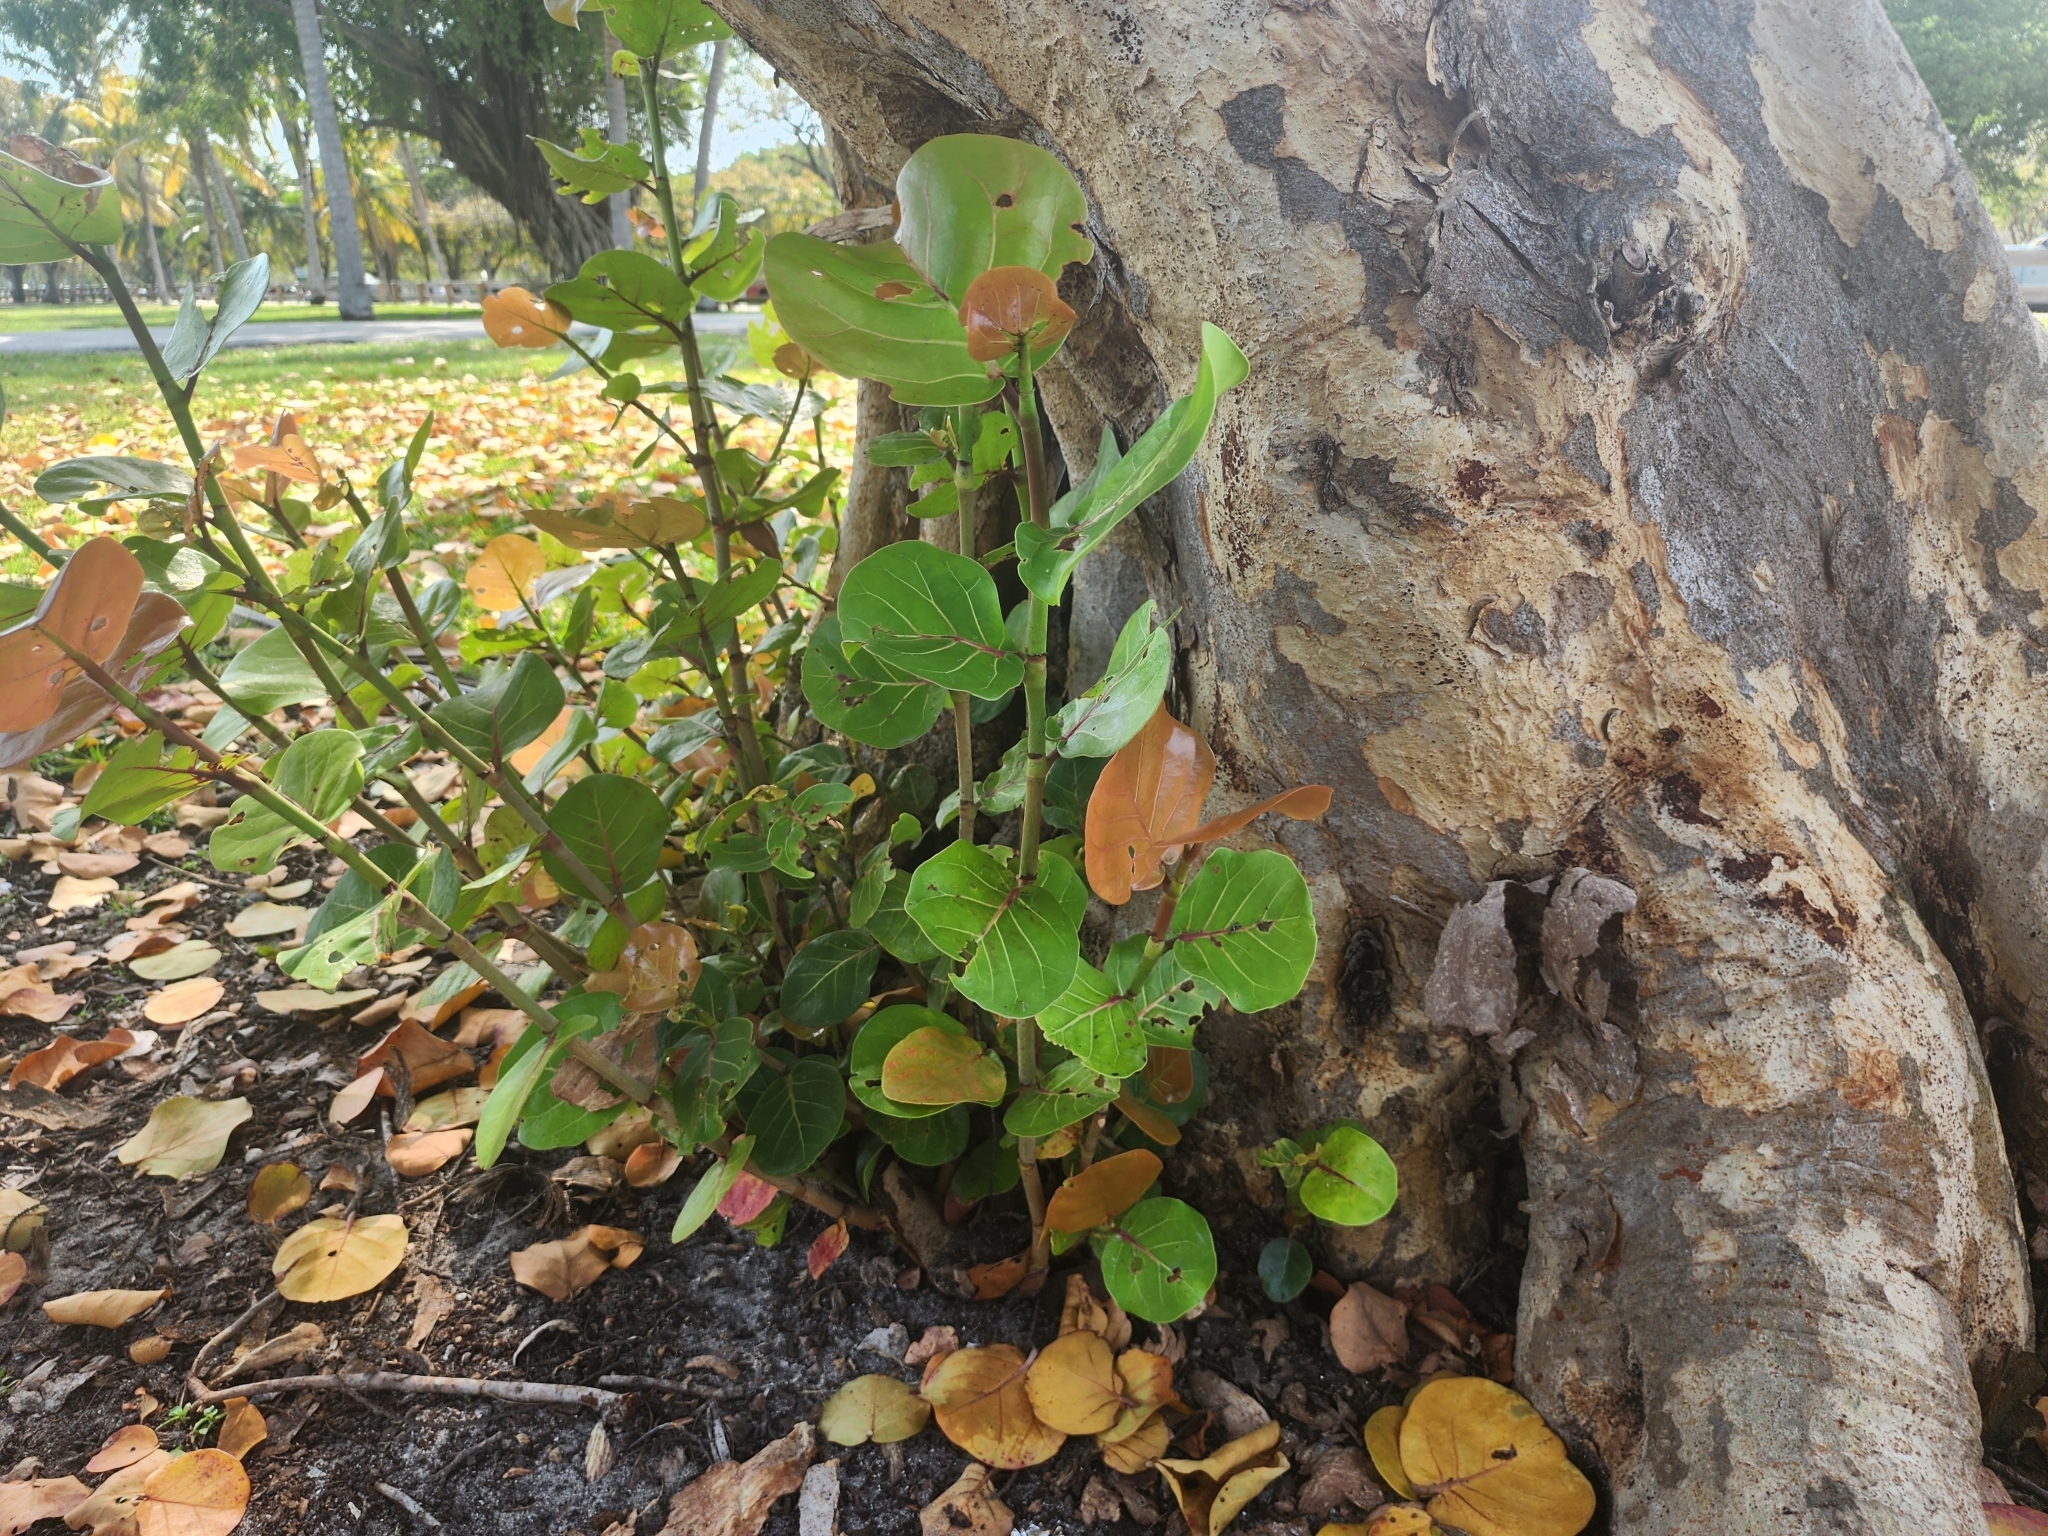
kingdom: Plantae
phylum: Tracheophyta
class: Magnoliopsida
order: Caryophyllales
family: Polygonaceae
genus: Coccoloba
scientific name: Coccoloba uvifera
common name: Seagrape
